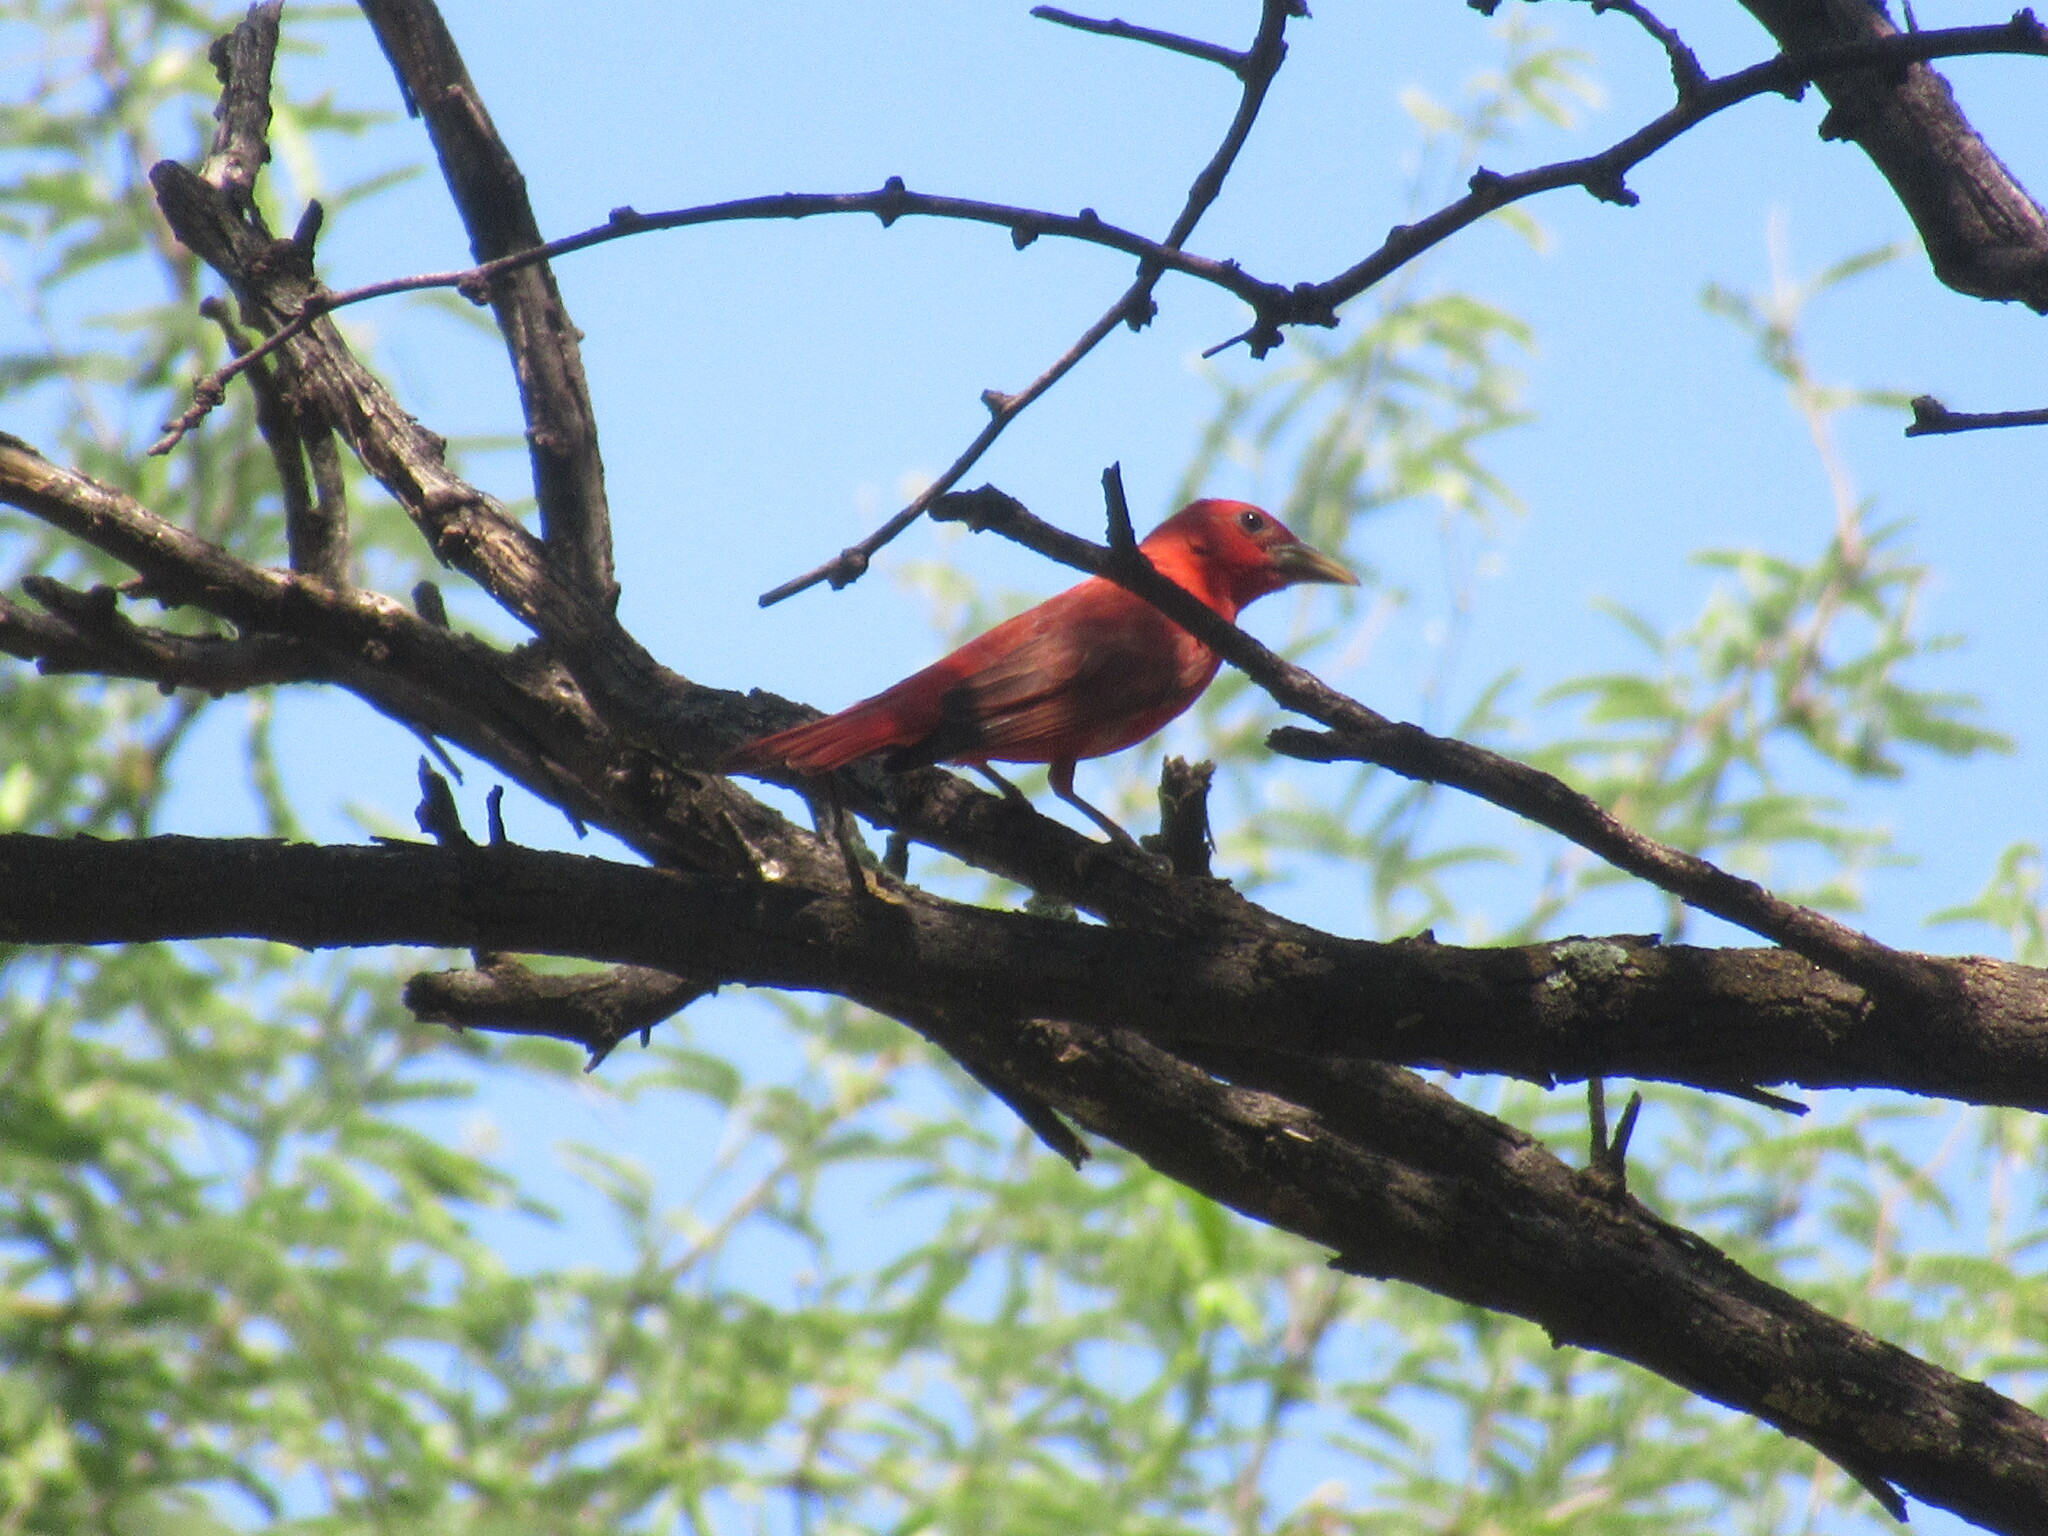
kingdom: Animalia
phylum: Chordata
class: Aves
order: Passeriformes
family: Cardinalidae
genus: Piranga
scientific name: Piranga rubra
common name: Summer tanager
